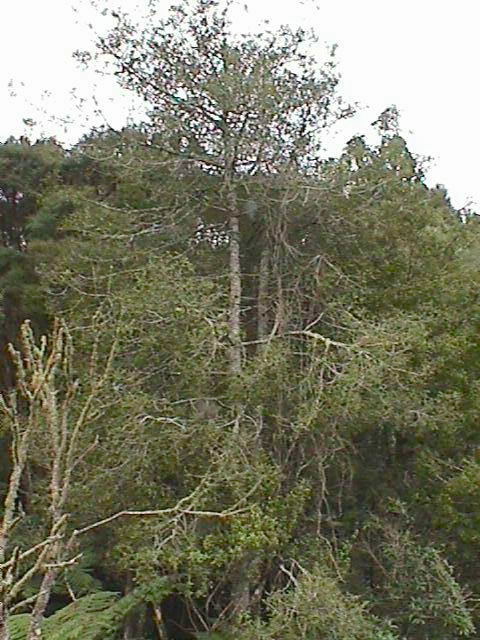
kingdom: Plantae
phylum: Tracheophyta
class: Pinopsida
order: Pinales
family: Phyllocladaceae
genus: Phyllocladus
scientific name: Phyllocladus trichomanoides
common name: Celery pine
